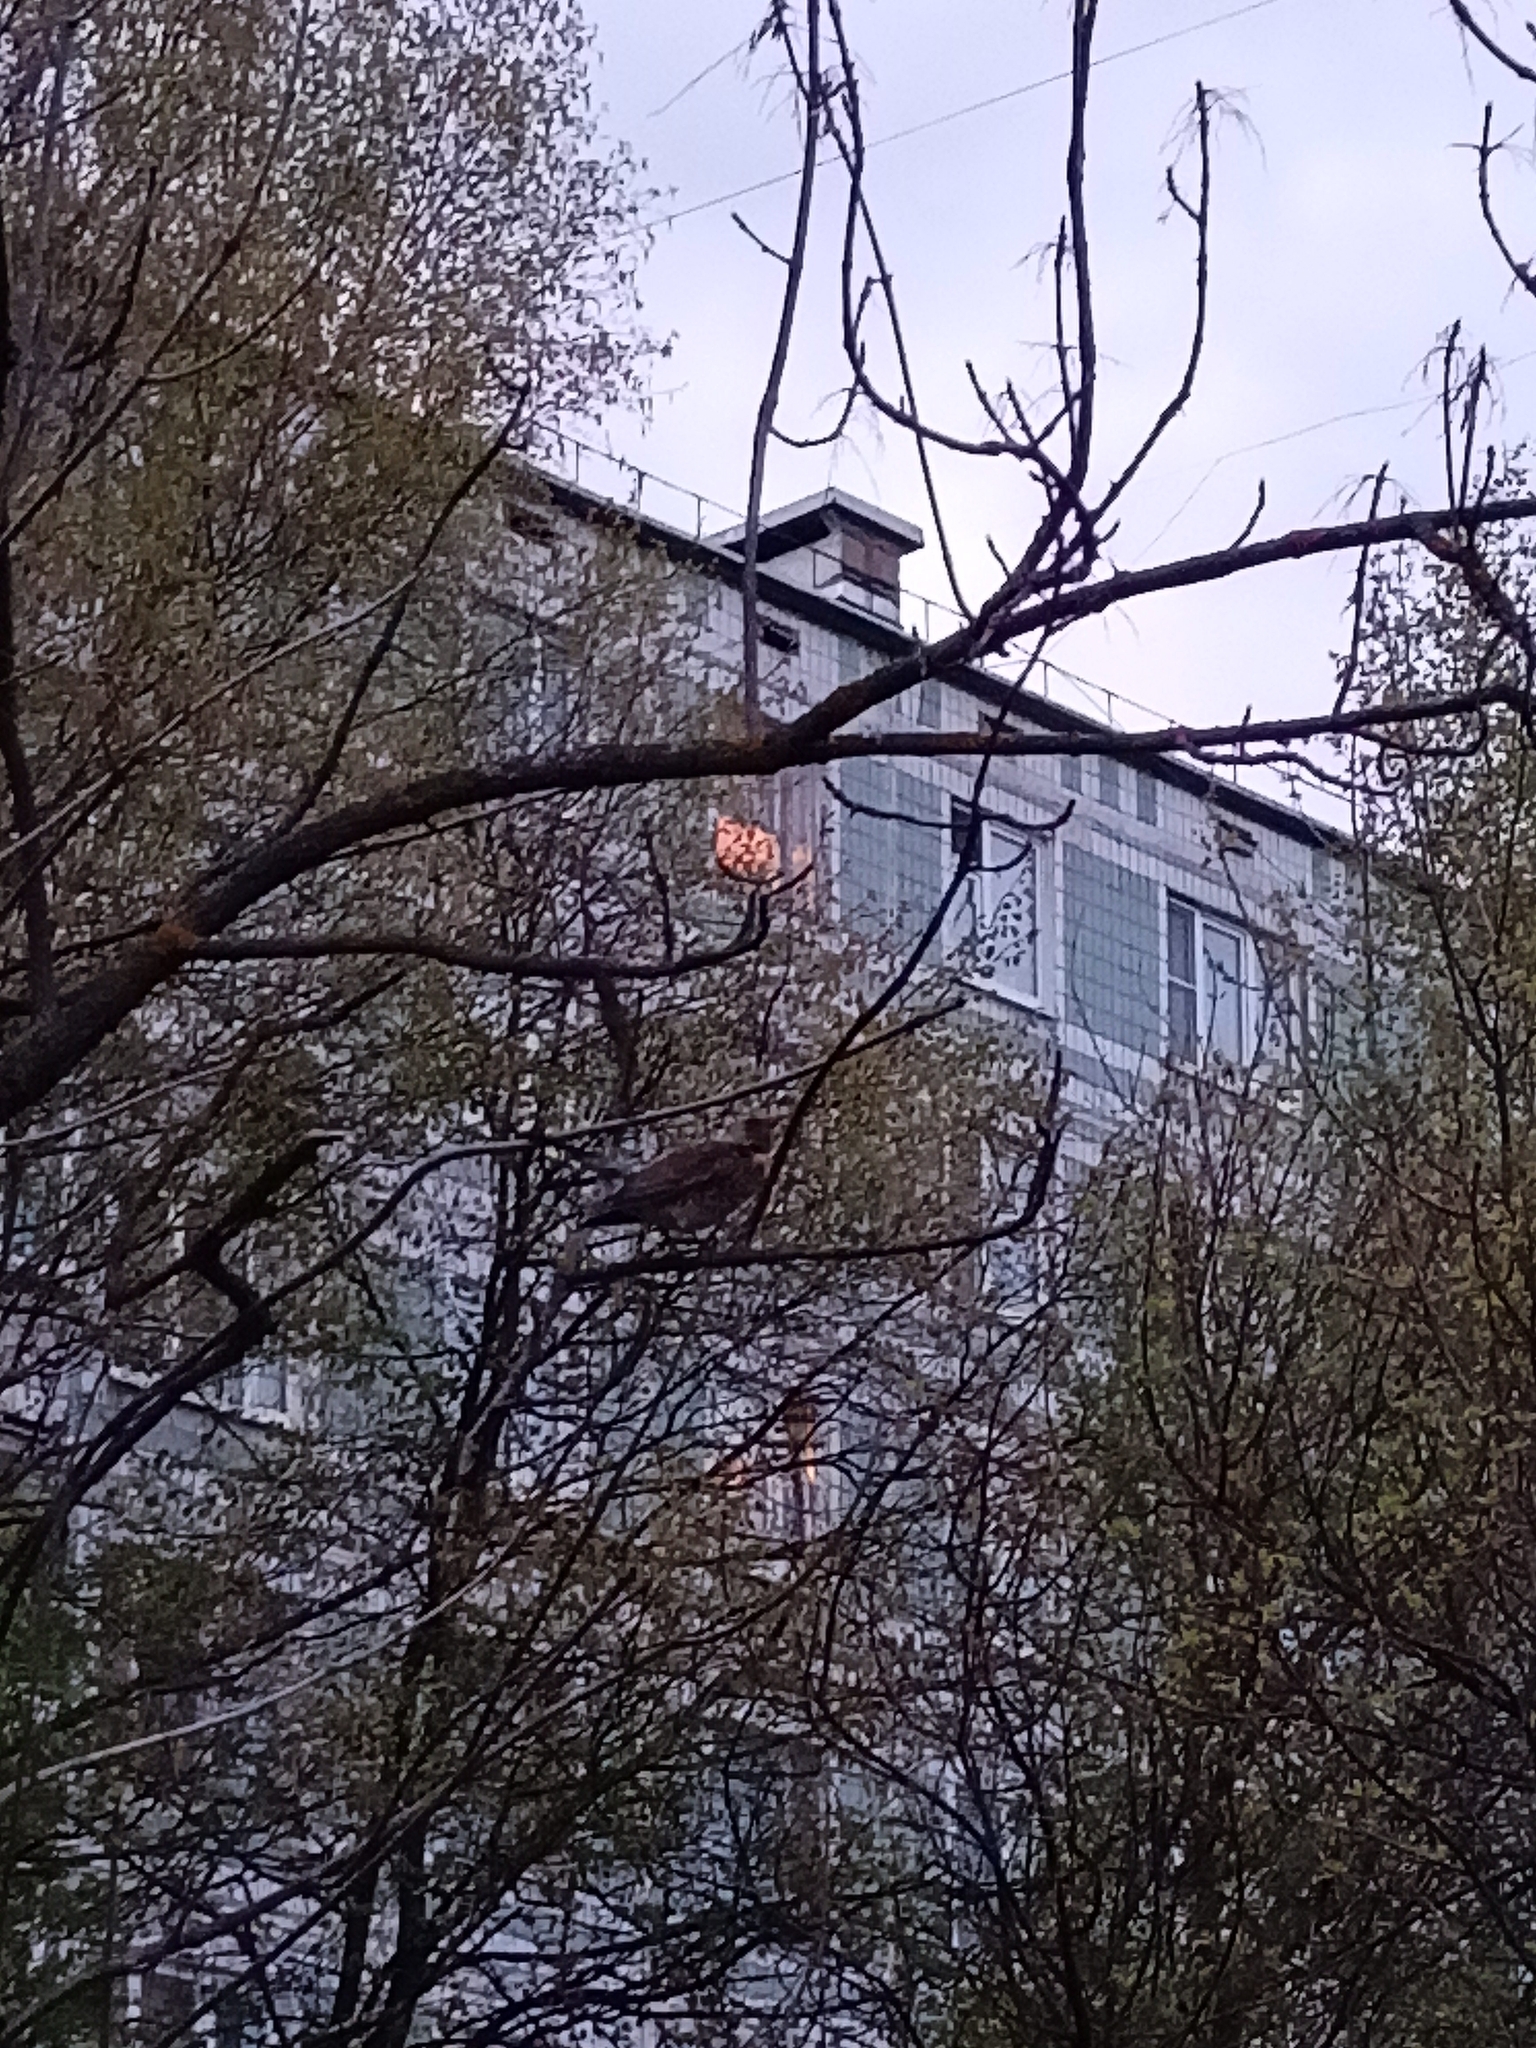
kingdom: Animalia
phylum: Chordata
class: Aves
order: Passeriformes
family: Turdidae
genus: Turdus
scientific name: Turdus pilaris
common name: Fieldfare
